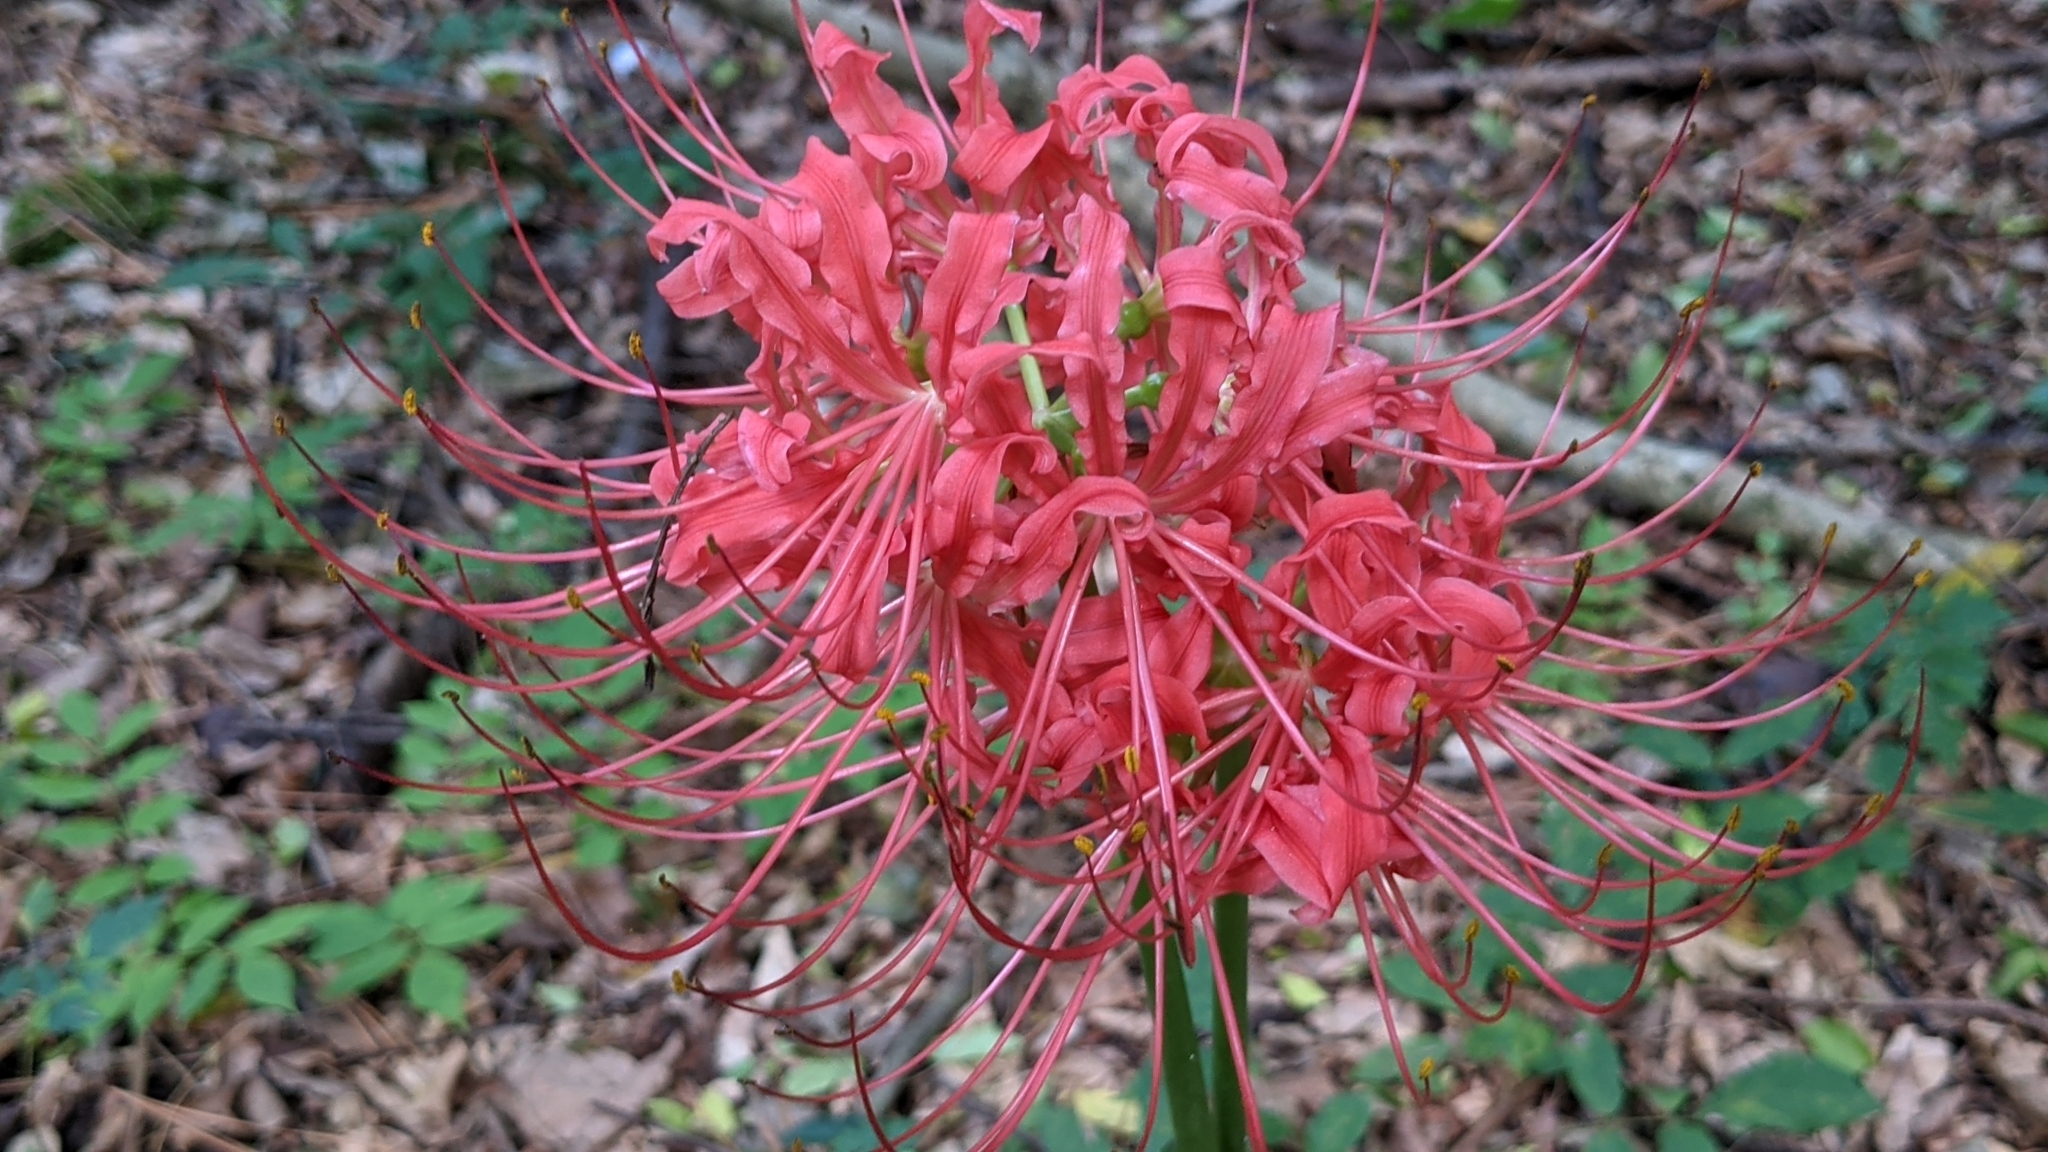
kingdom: Plantae
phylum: Tracheophyta
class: Liliopsida
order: Asparagales
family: Amaryllidaceae
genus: Lycoris
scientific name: Lycoris radiata
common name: Red spider lily
